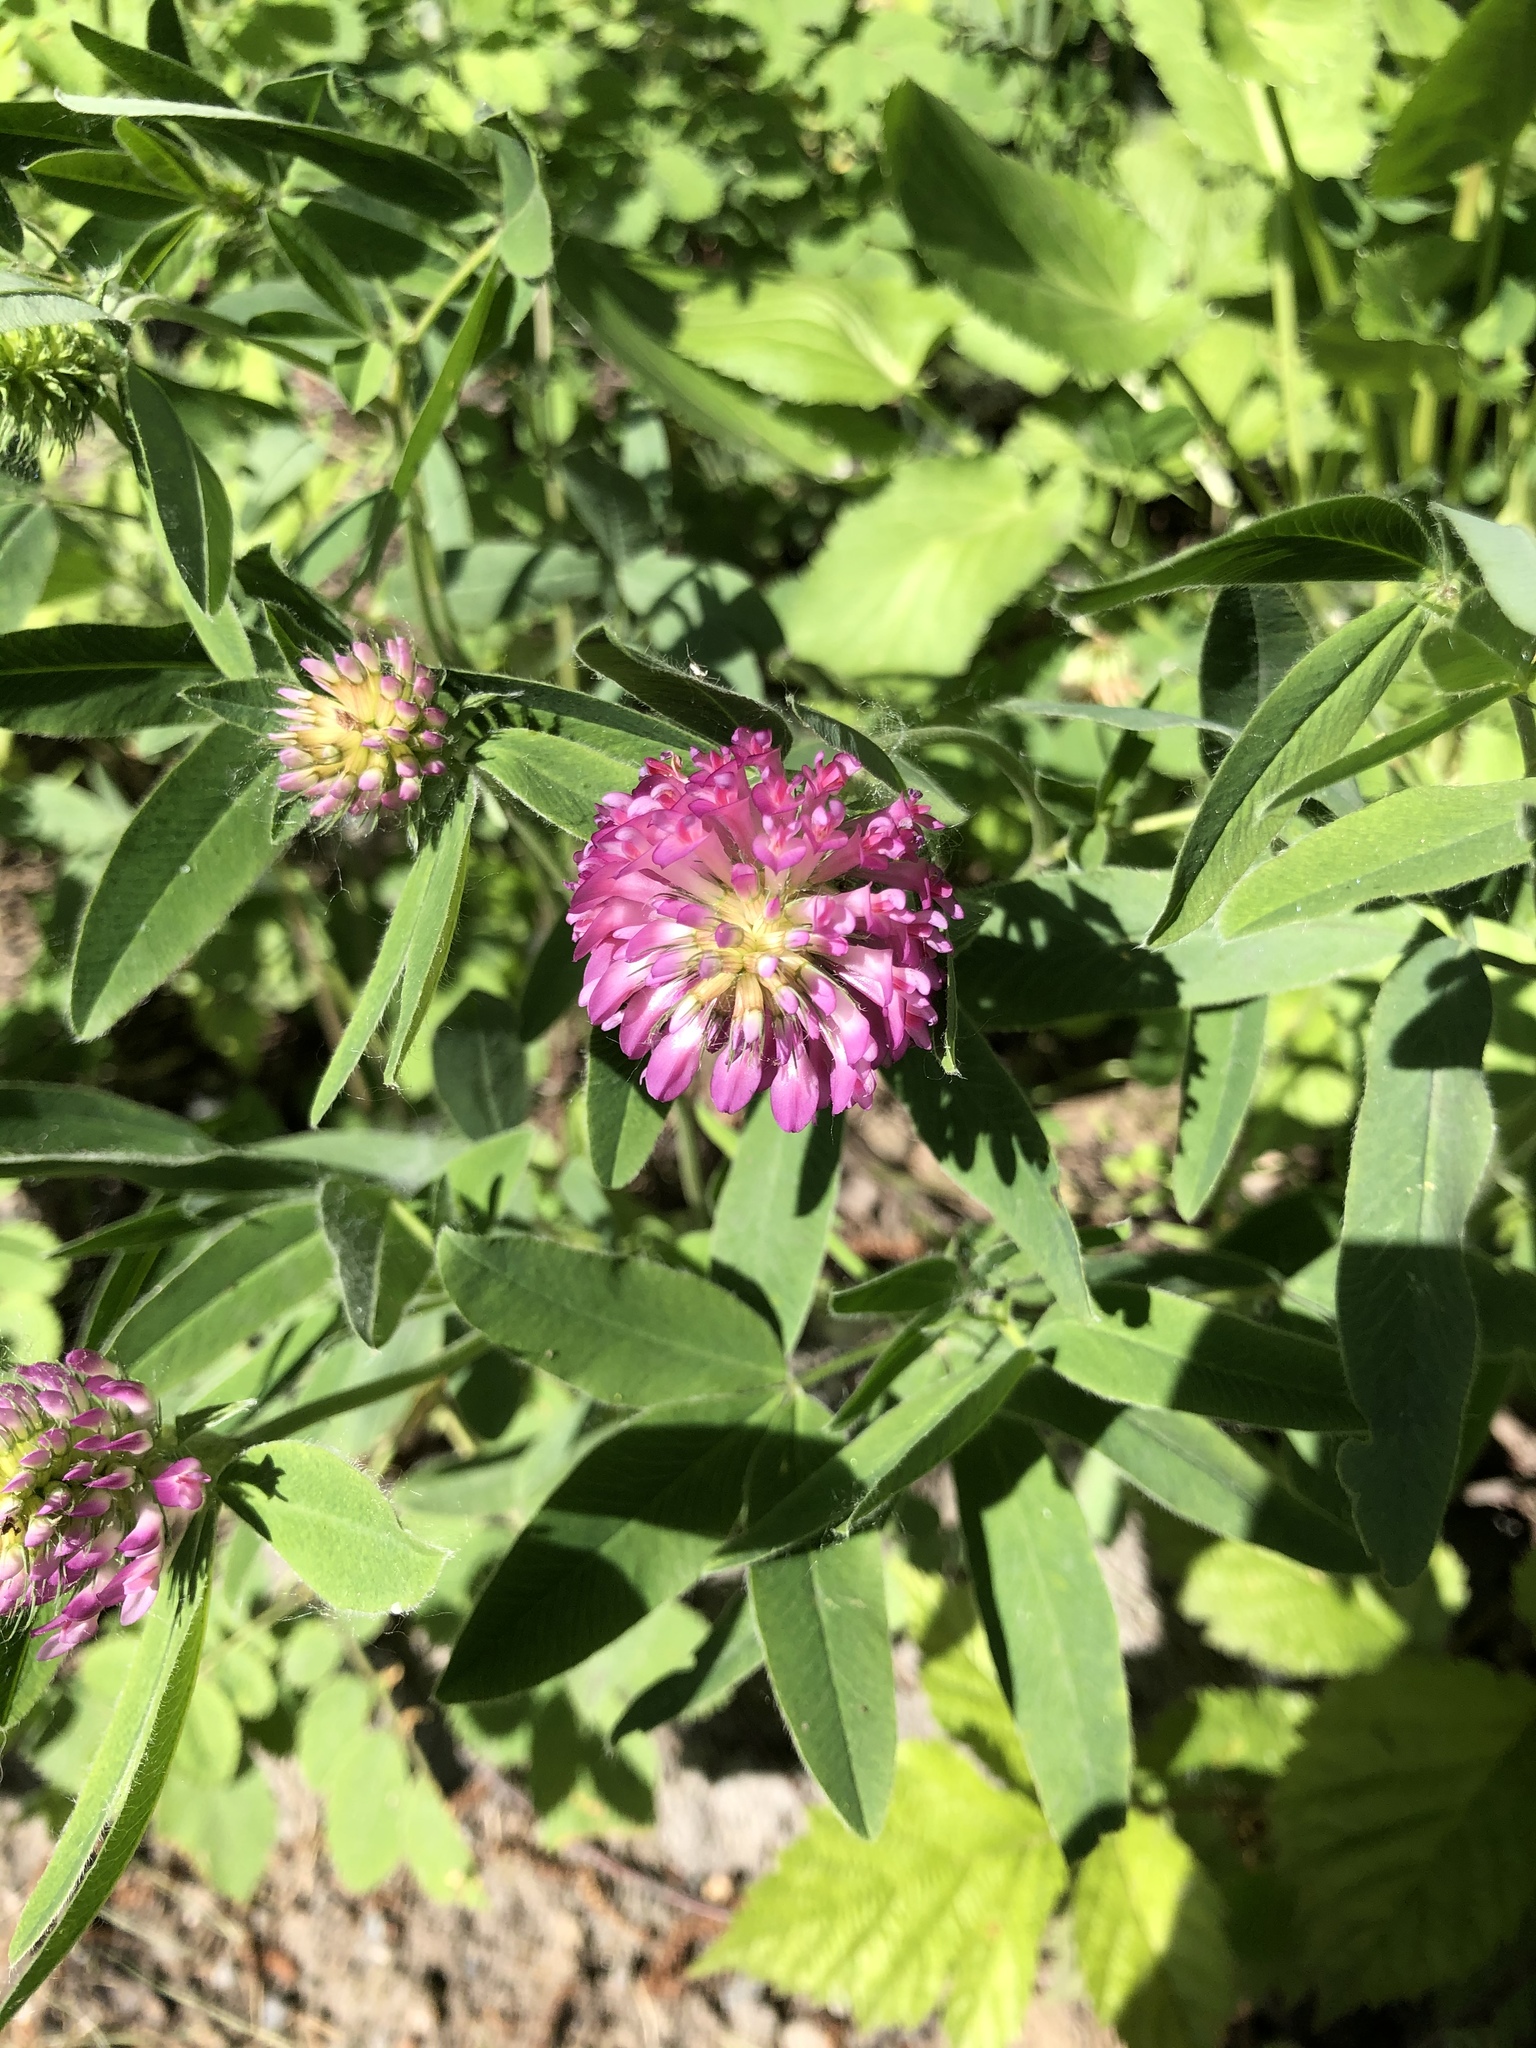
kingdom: Plantae
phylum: Tracheophyta
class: Magnoliopsida
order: Fabales
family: Fabaceae
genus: Trifolium
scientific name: Trifolium medium
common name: Zigzag clover
